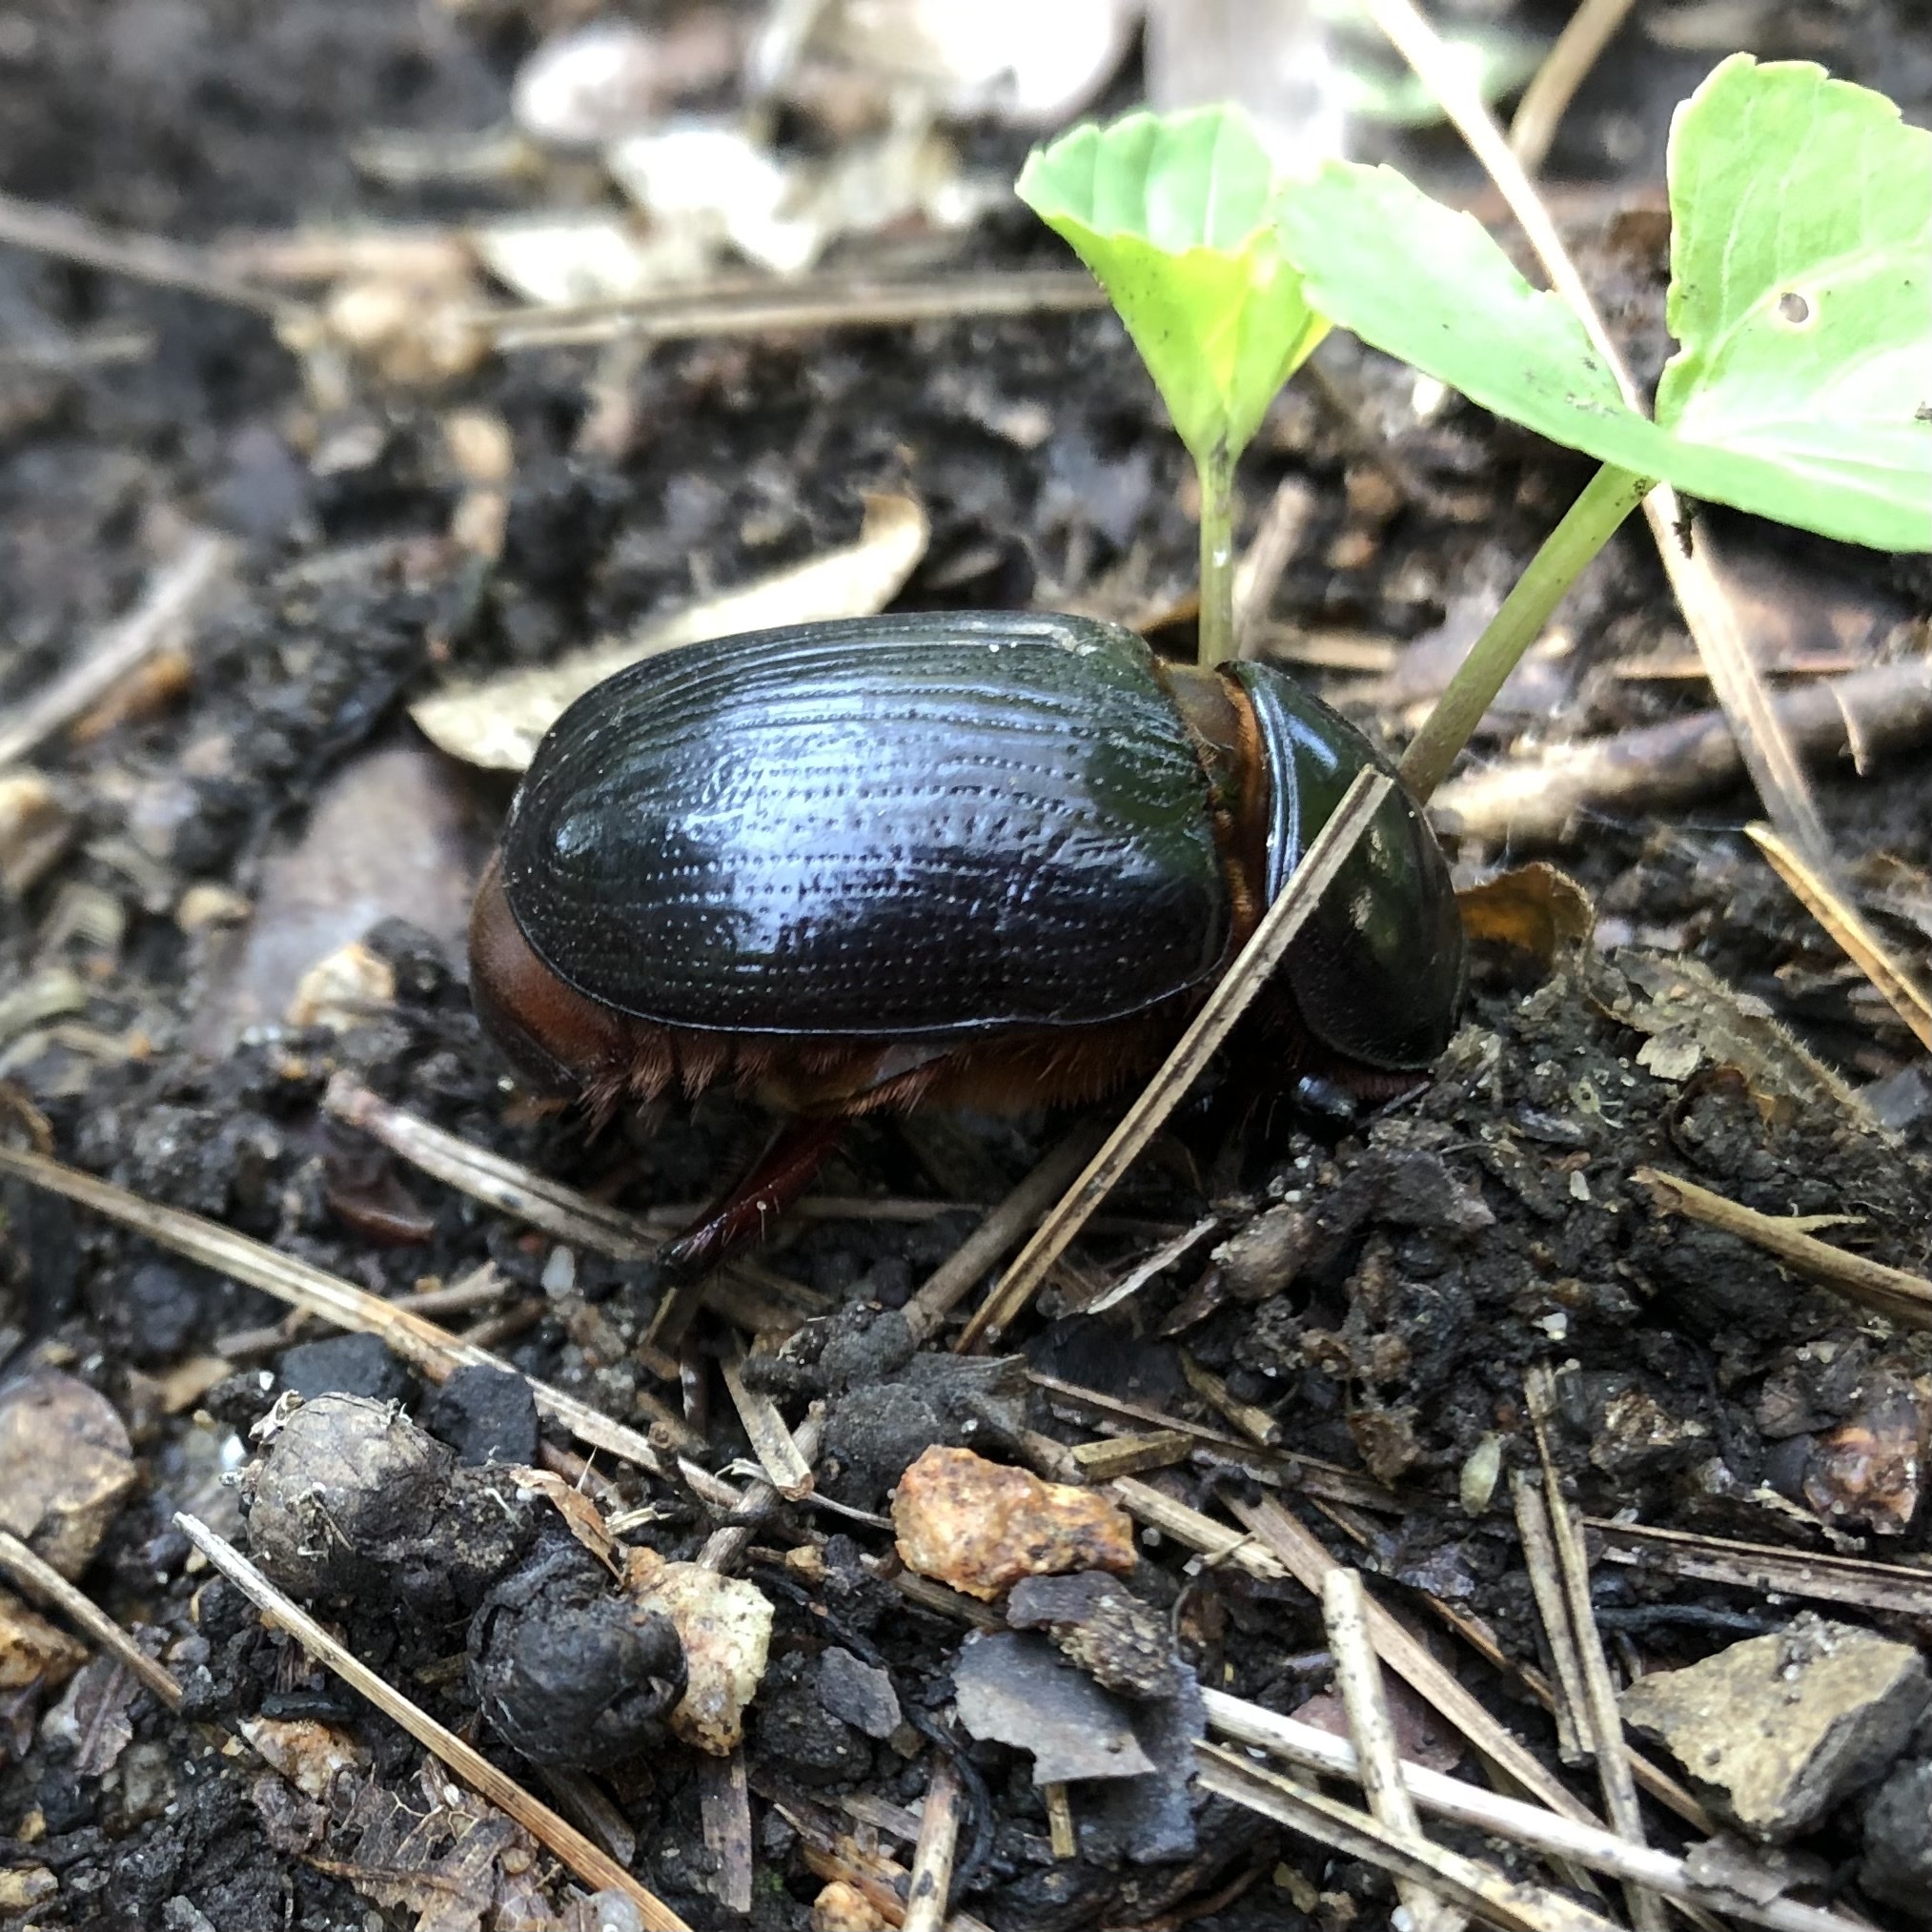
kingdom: Animalia
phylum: Arthropoda
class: Insecta
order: Coleoptera
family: Scarabaeidae
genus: Xyloryctes
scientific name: Xyloryctes jamaicensis
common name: Eastern rhinoceros beetle
